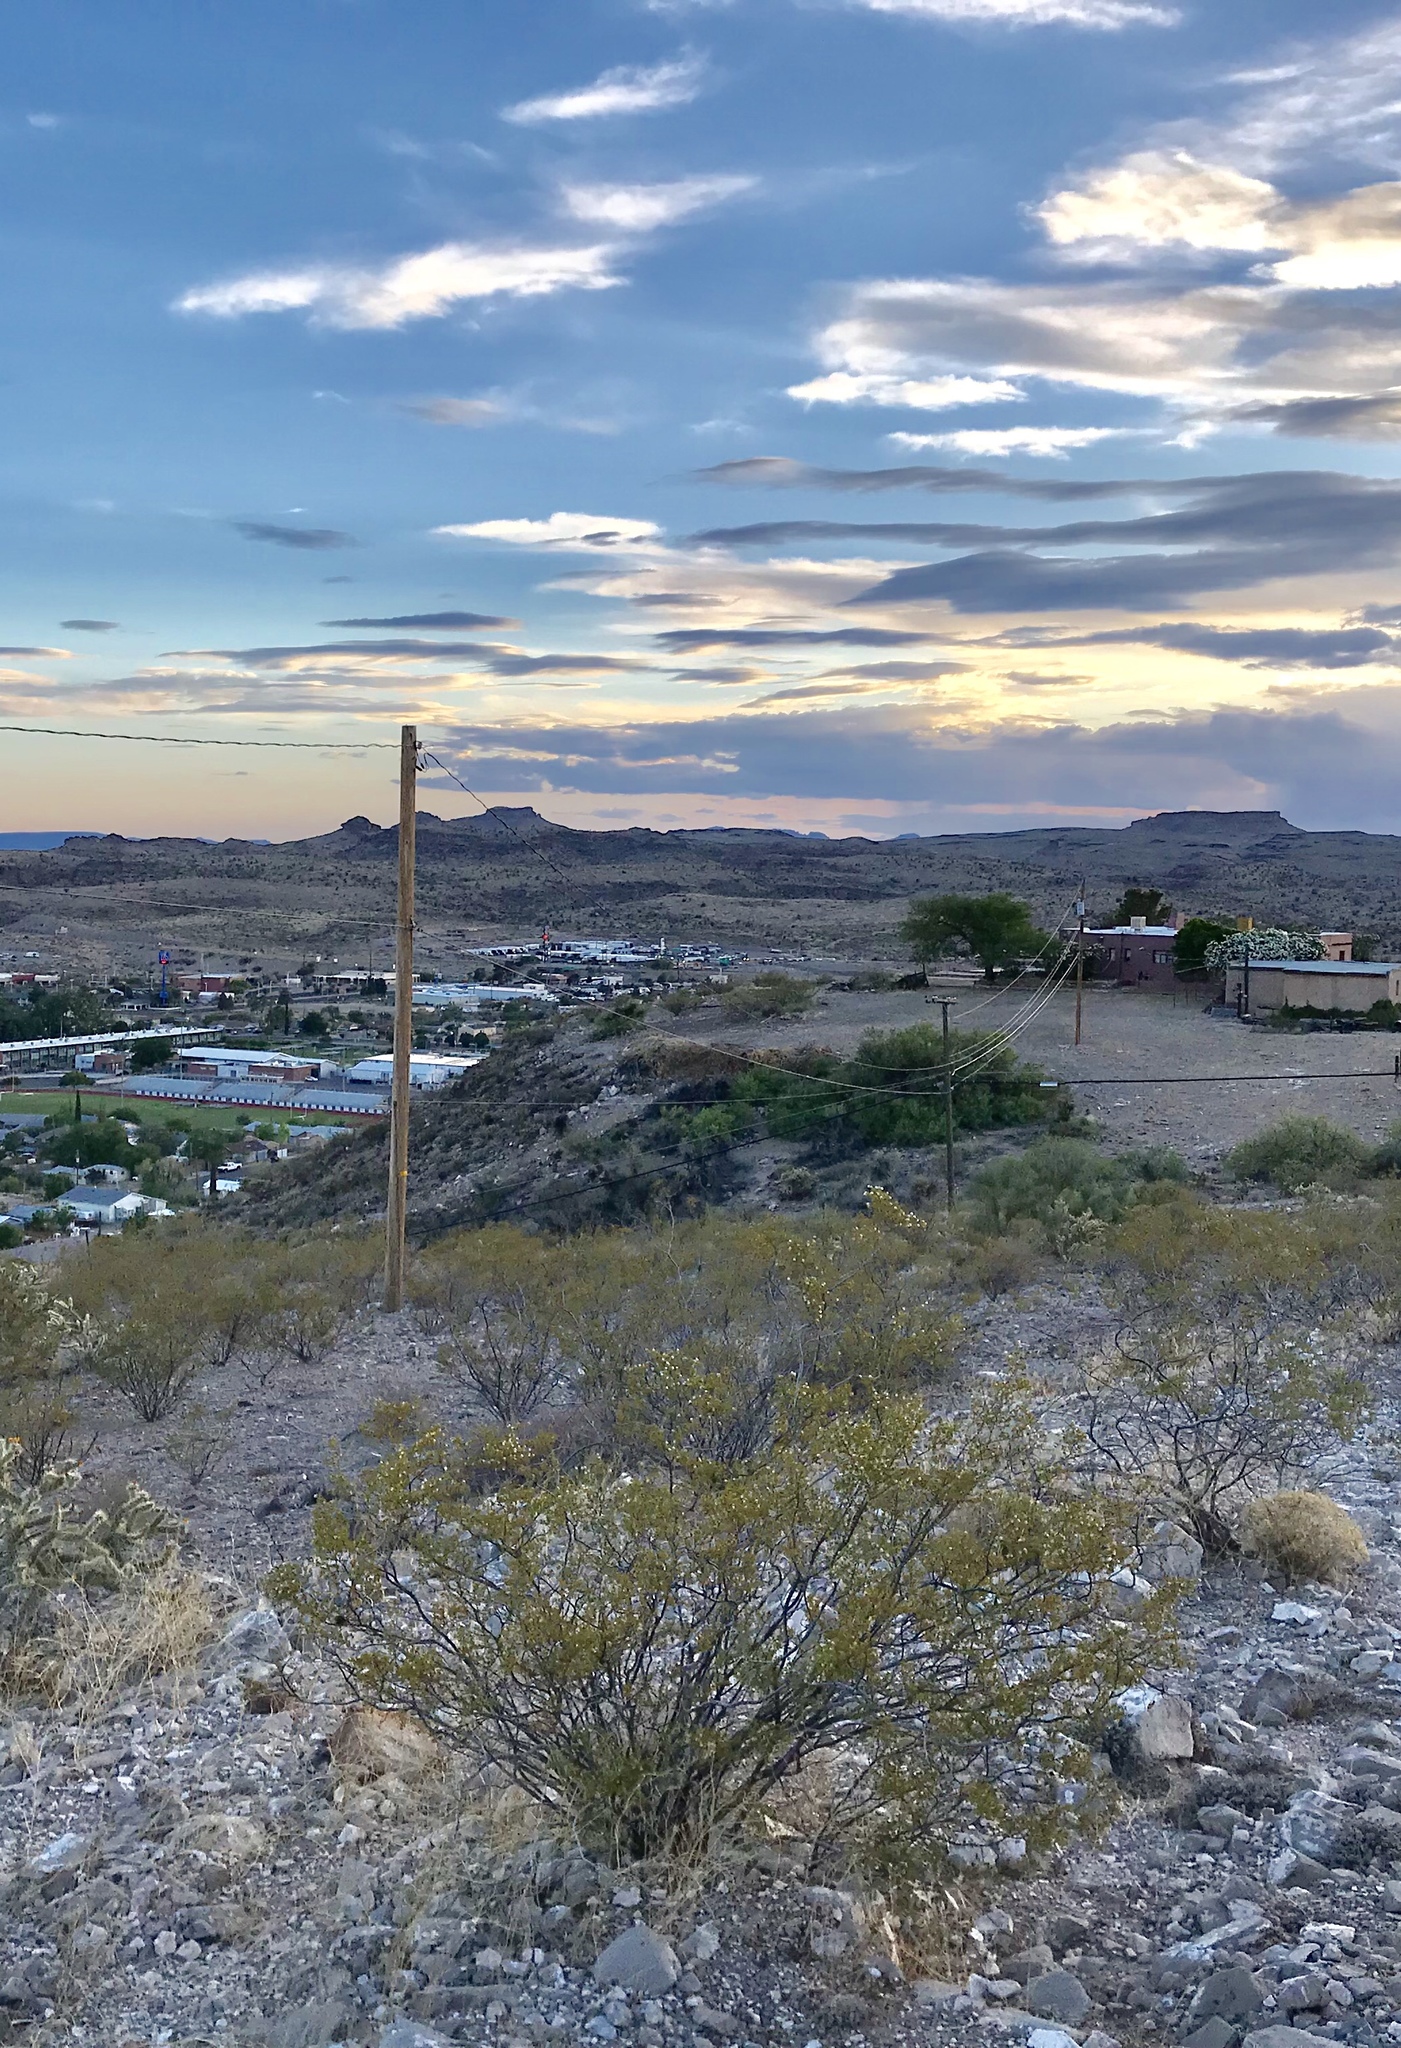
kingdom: Plantae
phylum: Tracheophyta
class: Magnoliopsida
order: Zygophyllales
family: Zygophyllaceae
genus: Larrea
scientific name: Larrea tridentata
